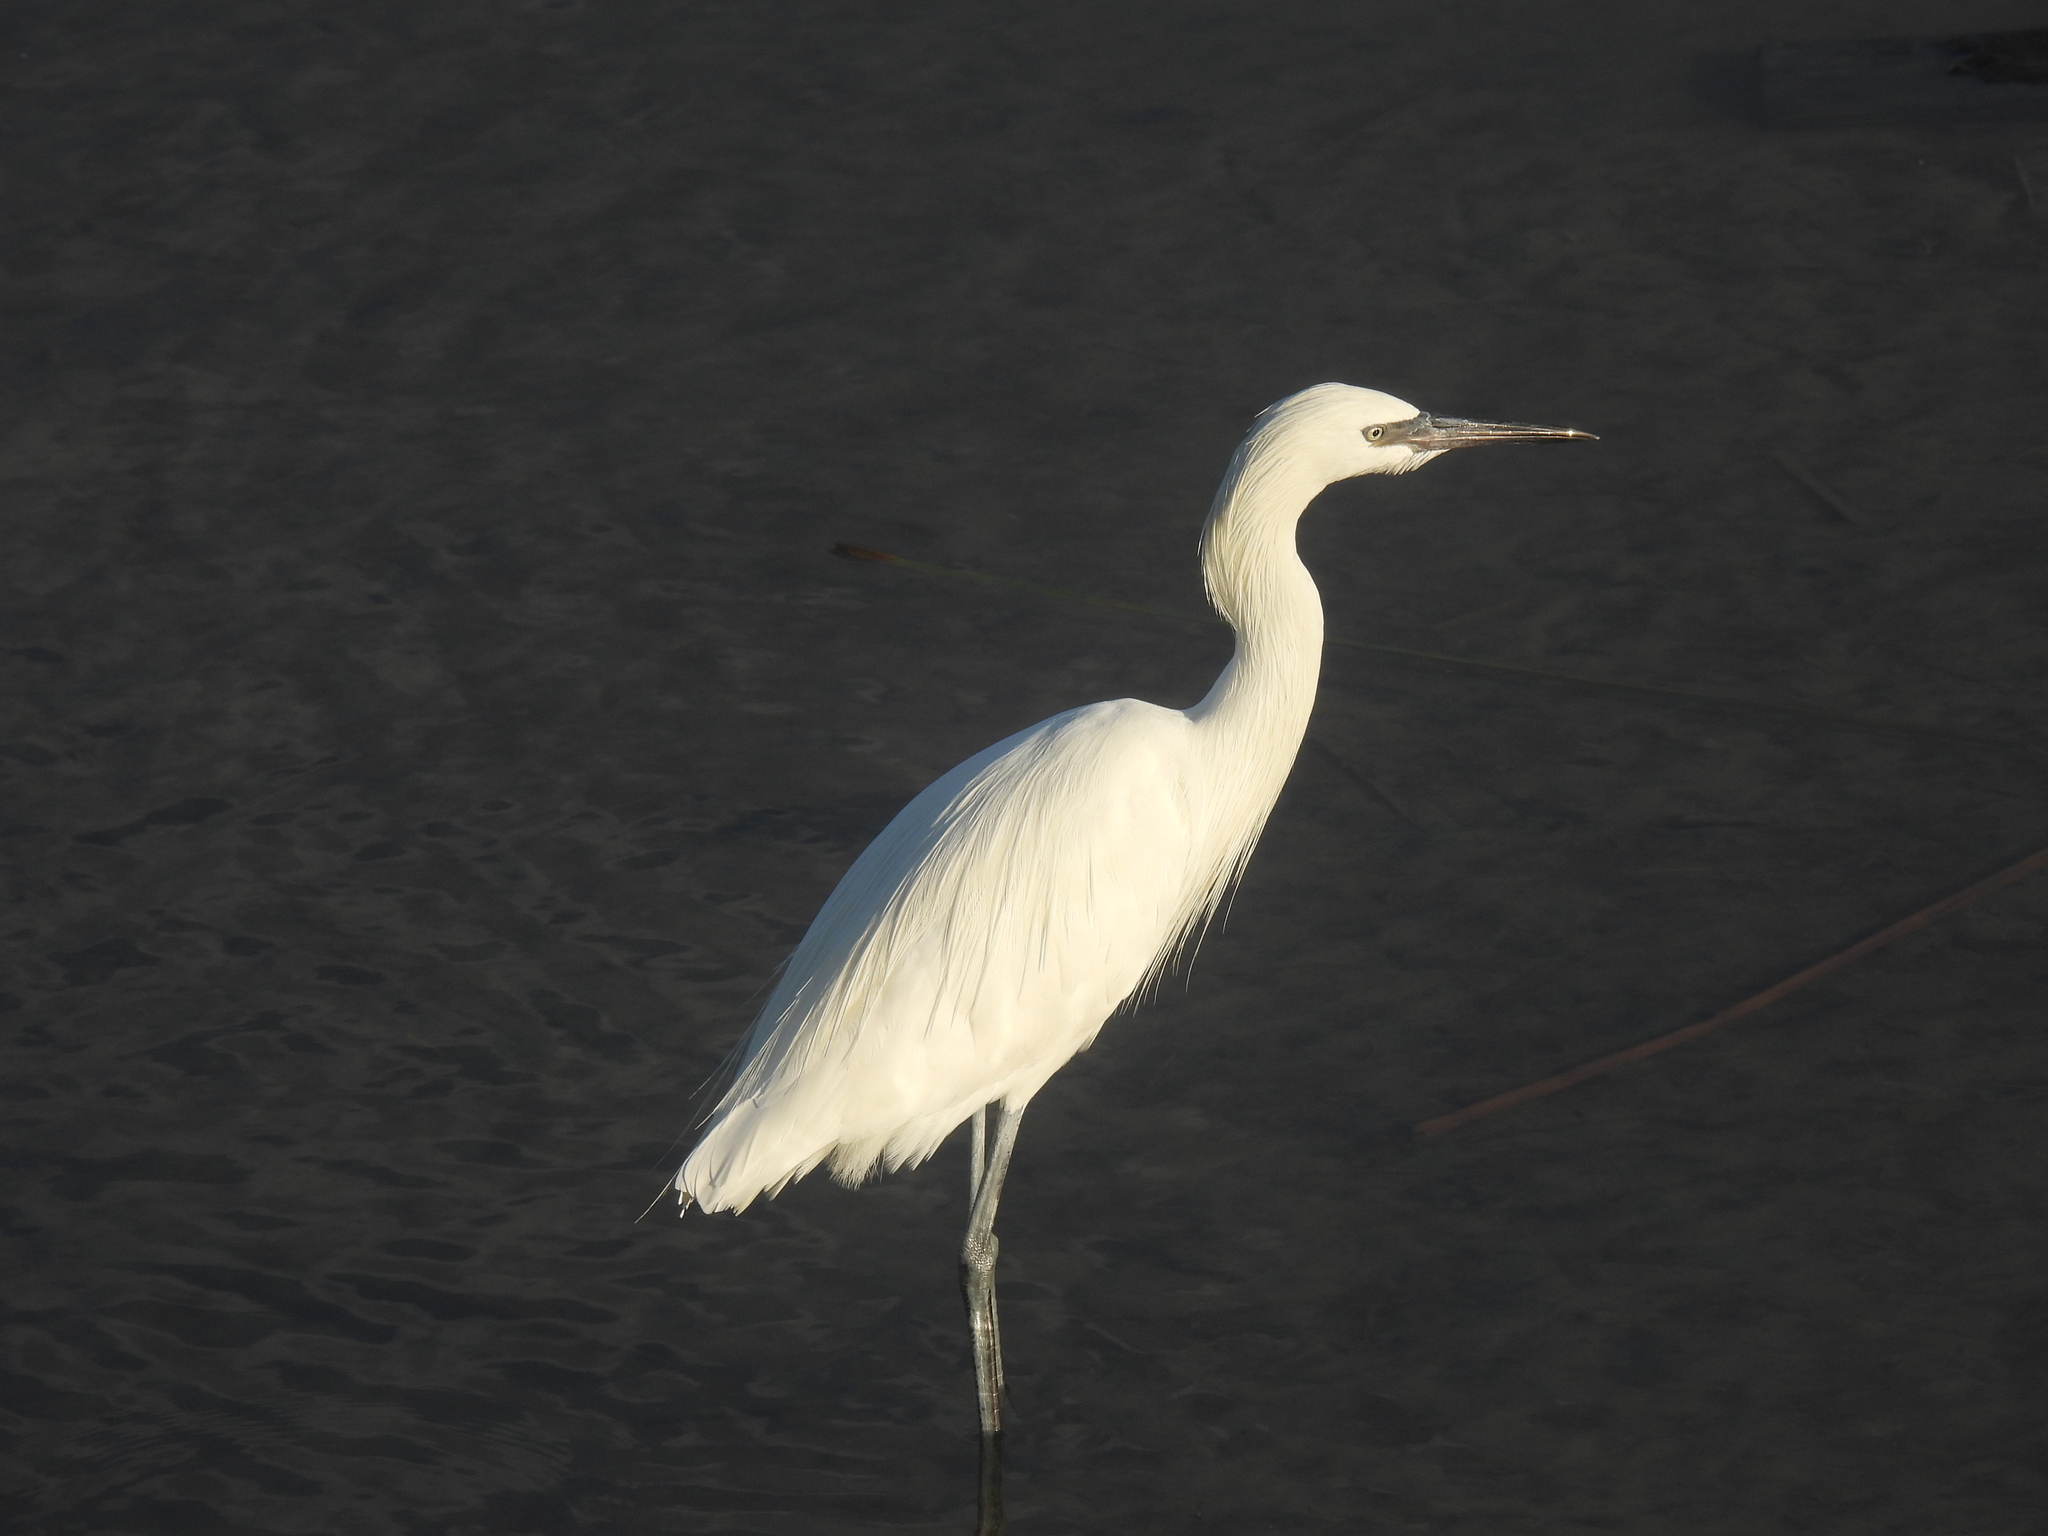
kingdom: Animalia
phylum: Chordata
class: Aves
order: Pelecaniformes
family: Ardeidae
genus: Egretta
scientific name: Egretta rufescens
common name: Reddish egret
